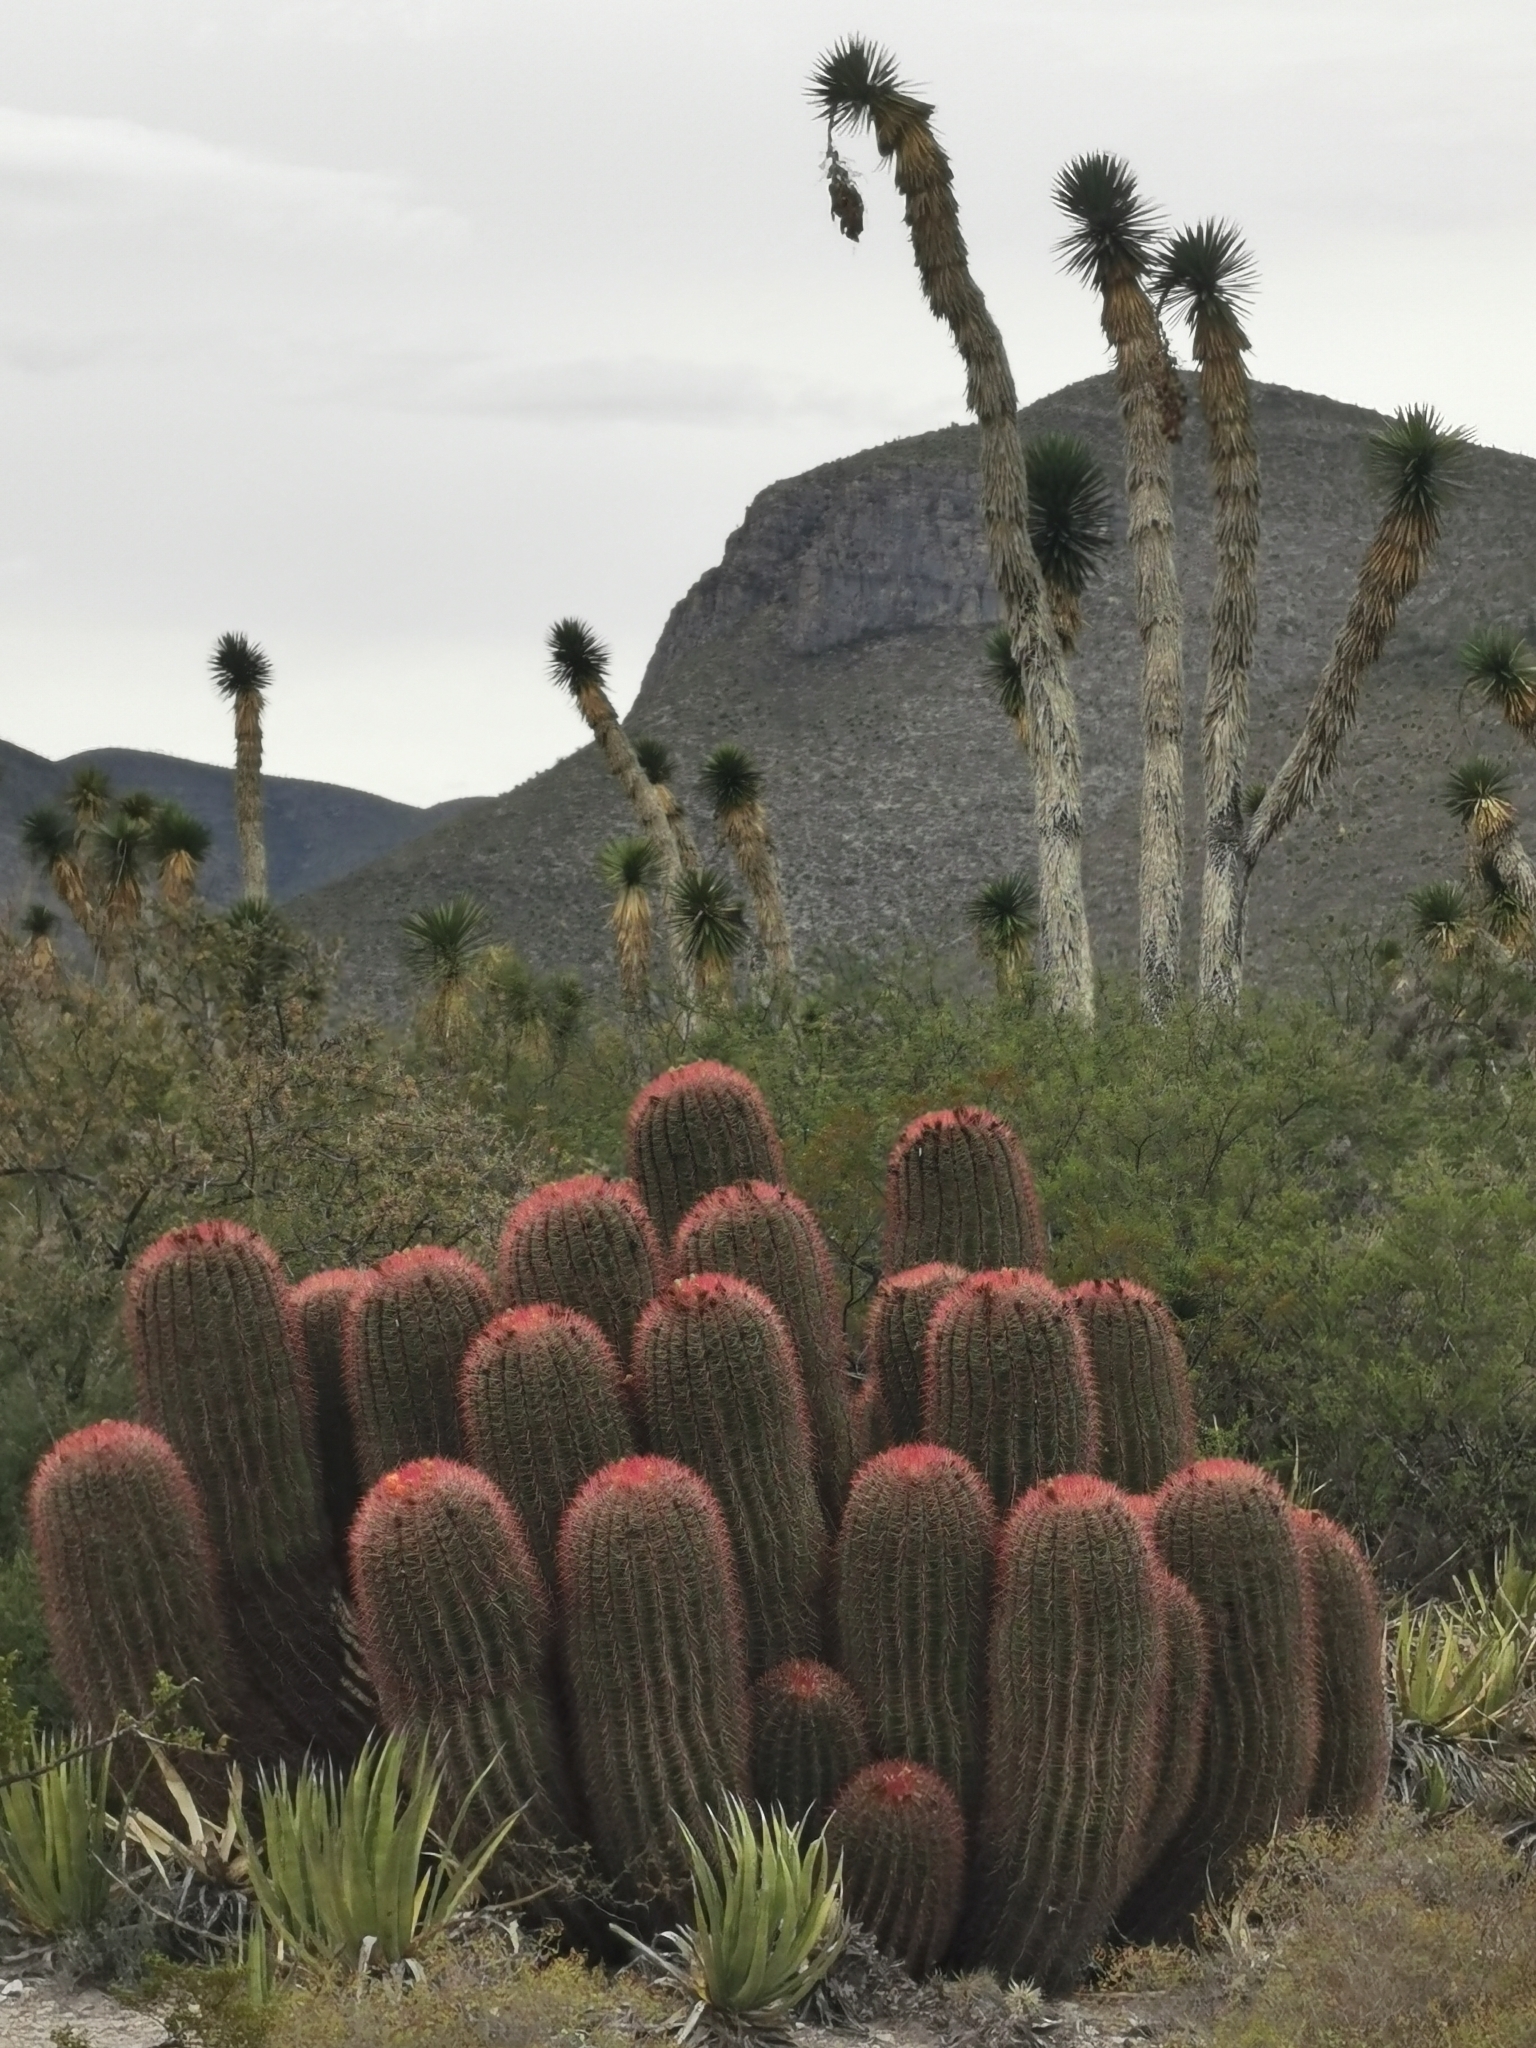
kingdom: Plantae
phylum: Tracheophyta
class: Magnoliopsida
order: Caryophyllales
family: Cactaceae
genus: Ferocactus
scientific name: Ferocactus pilosus
